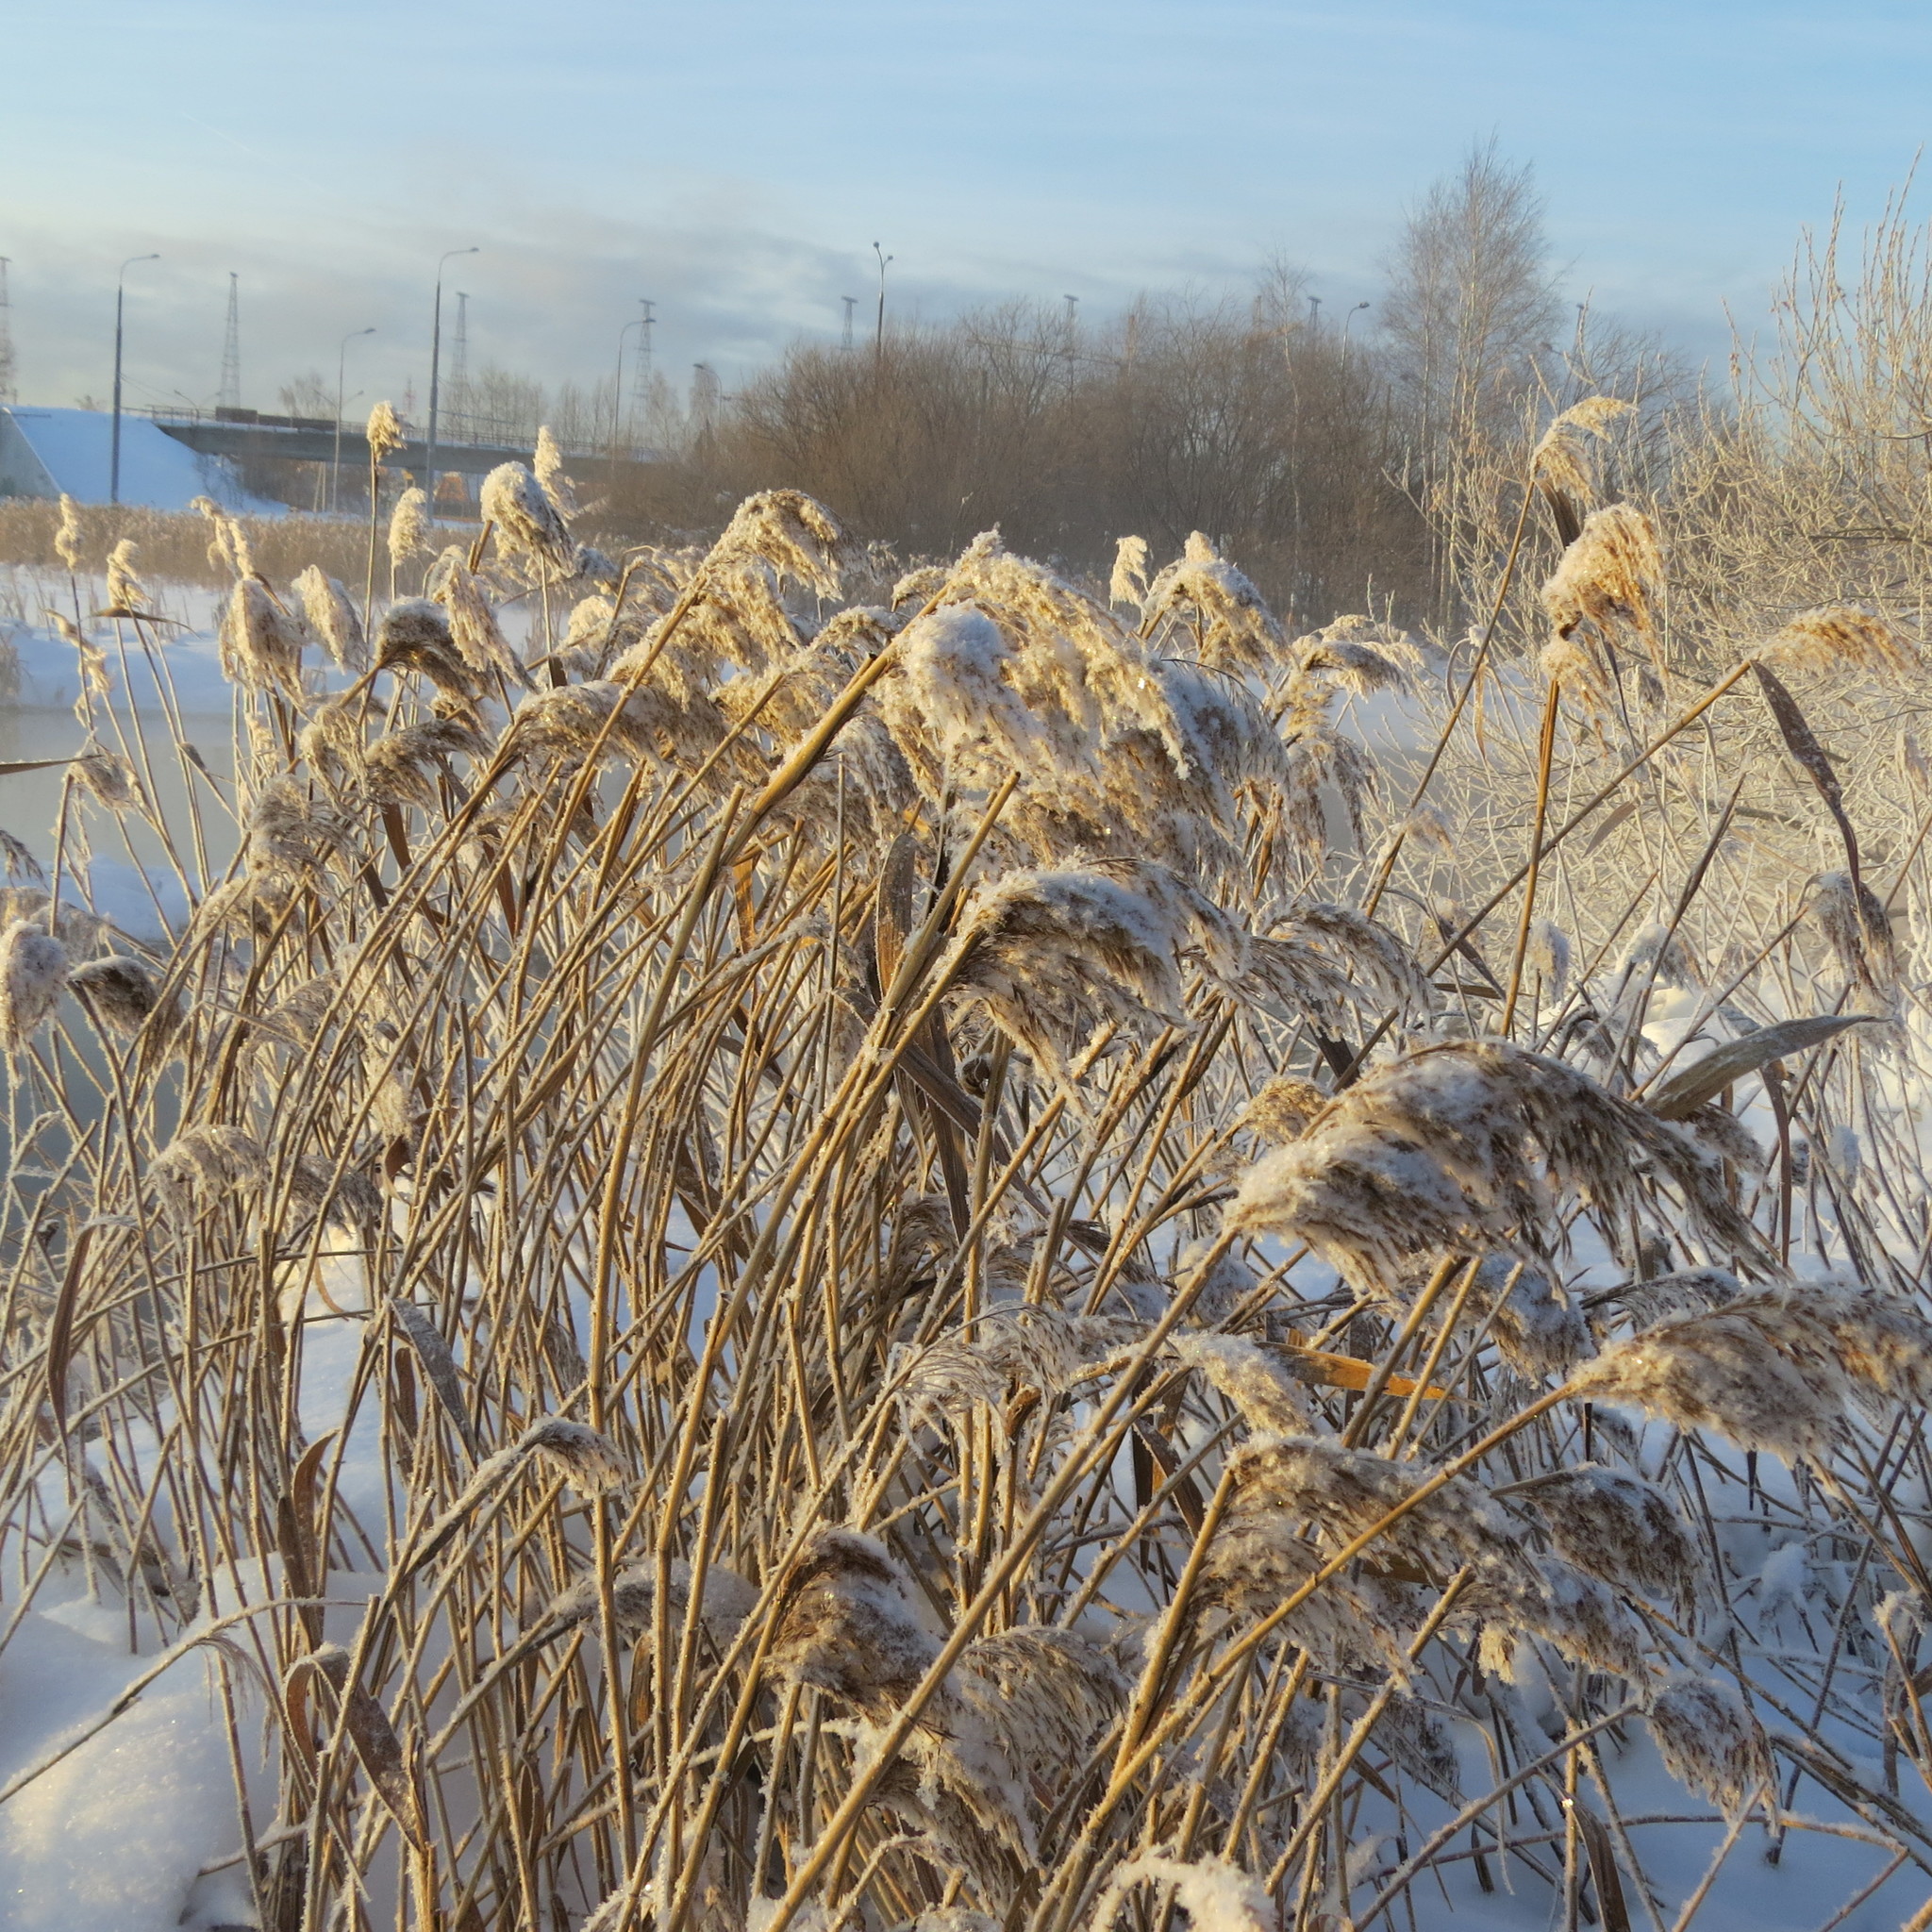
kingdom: Plantae
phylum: Tracheophyta
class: Liliopsida
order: Poales
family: Poaceae
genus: Phragmites
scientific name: Phragmites australis
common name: Common reed
